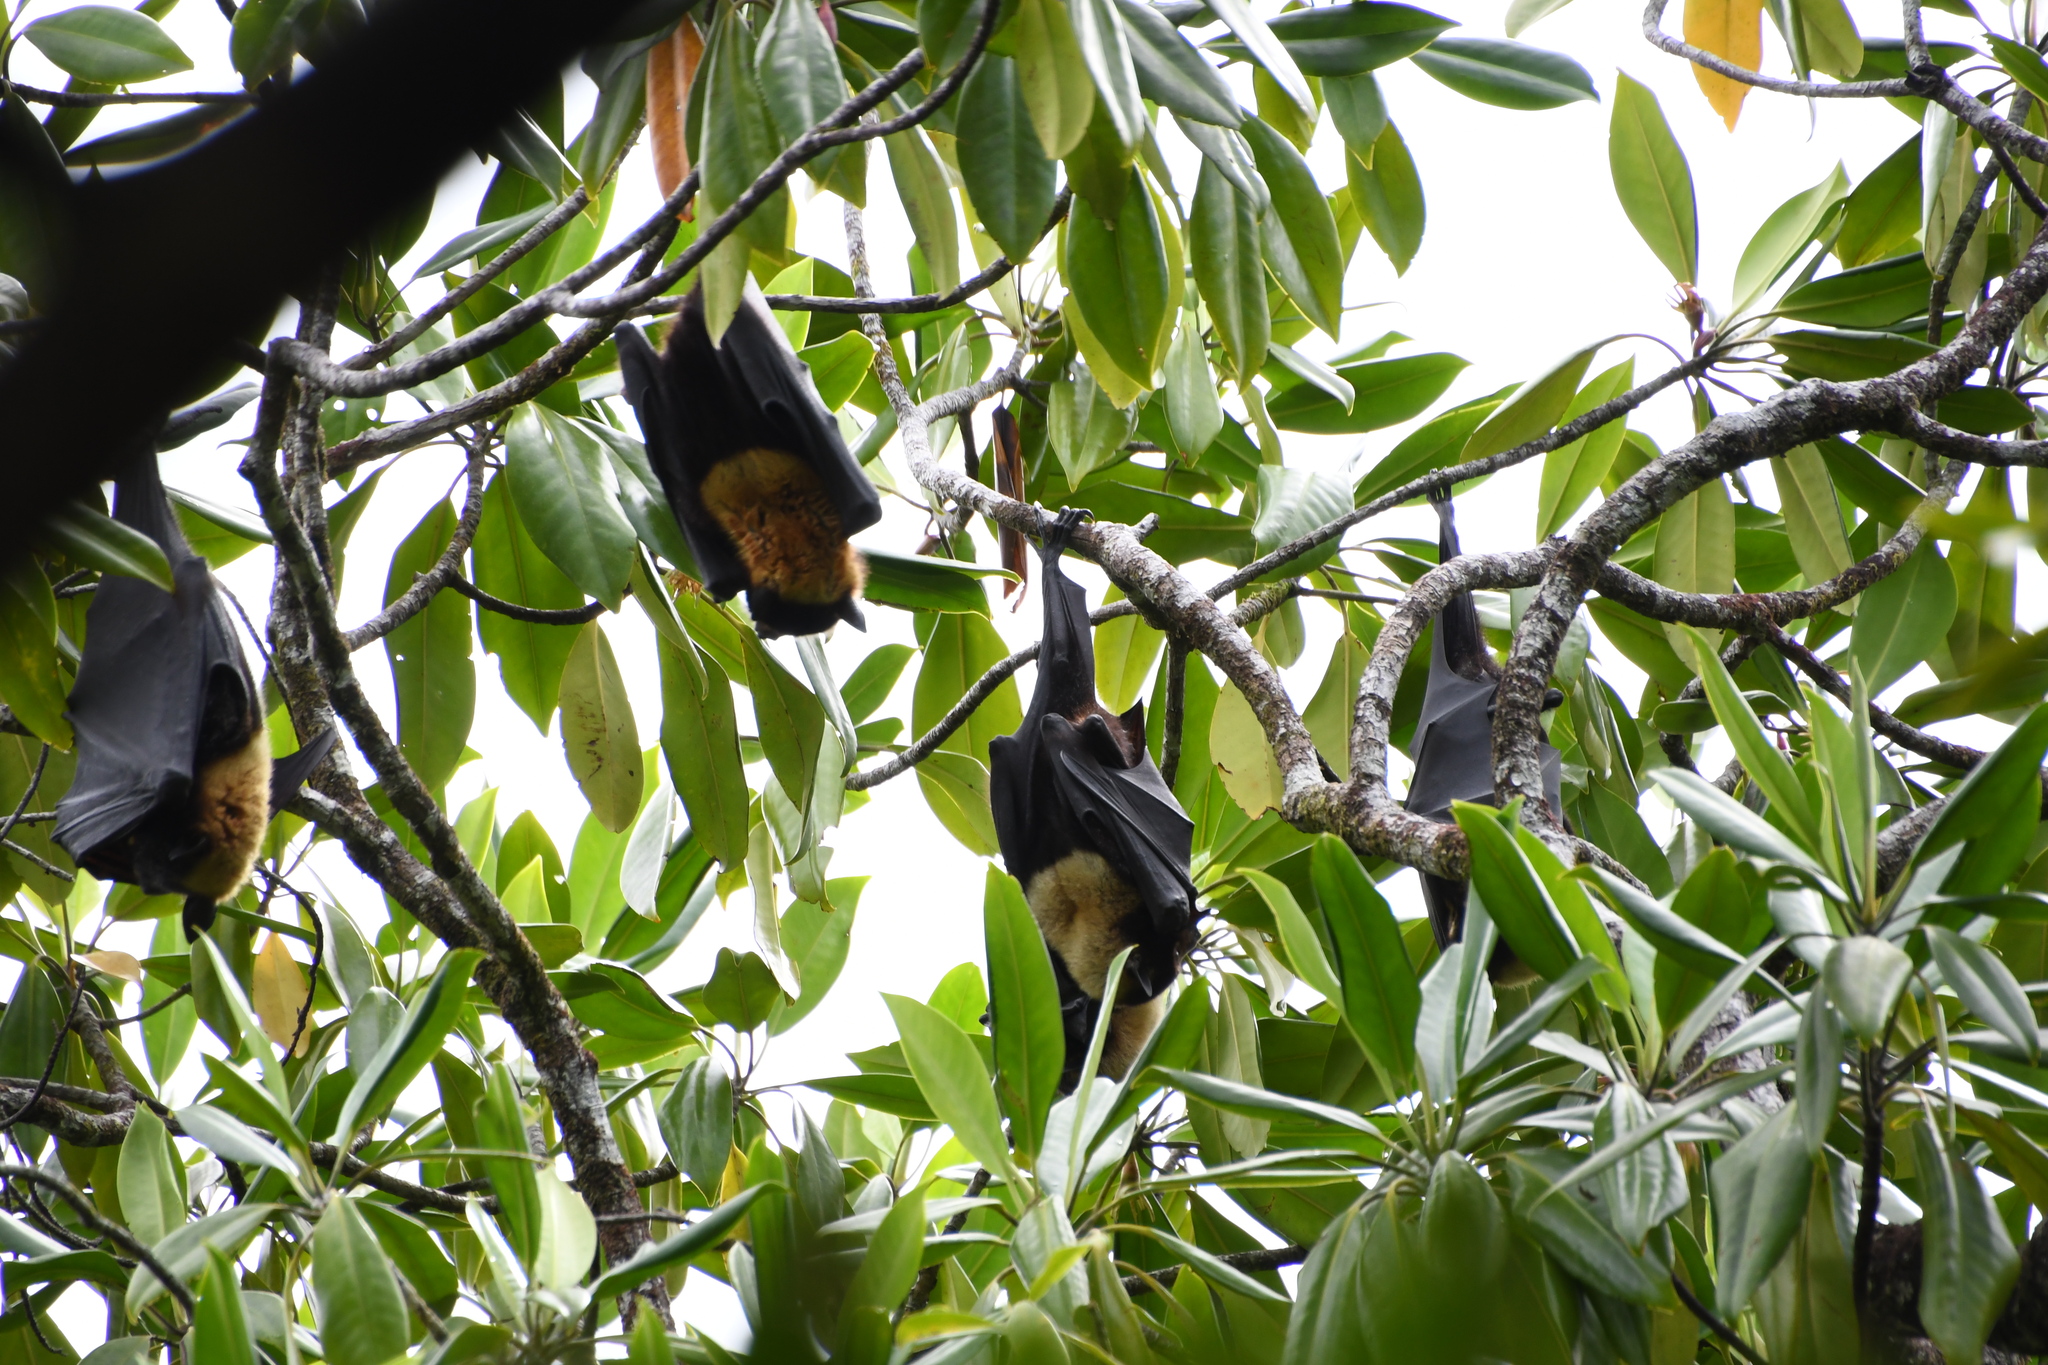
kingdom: Animalia
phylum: Chordata
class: Mammalia
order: Chiroptera
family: Pteropodidae
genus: Pteropus
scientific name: Pteropus conspicillatus
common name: Spectacled flying fox
